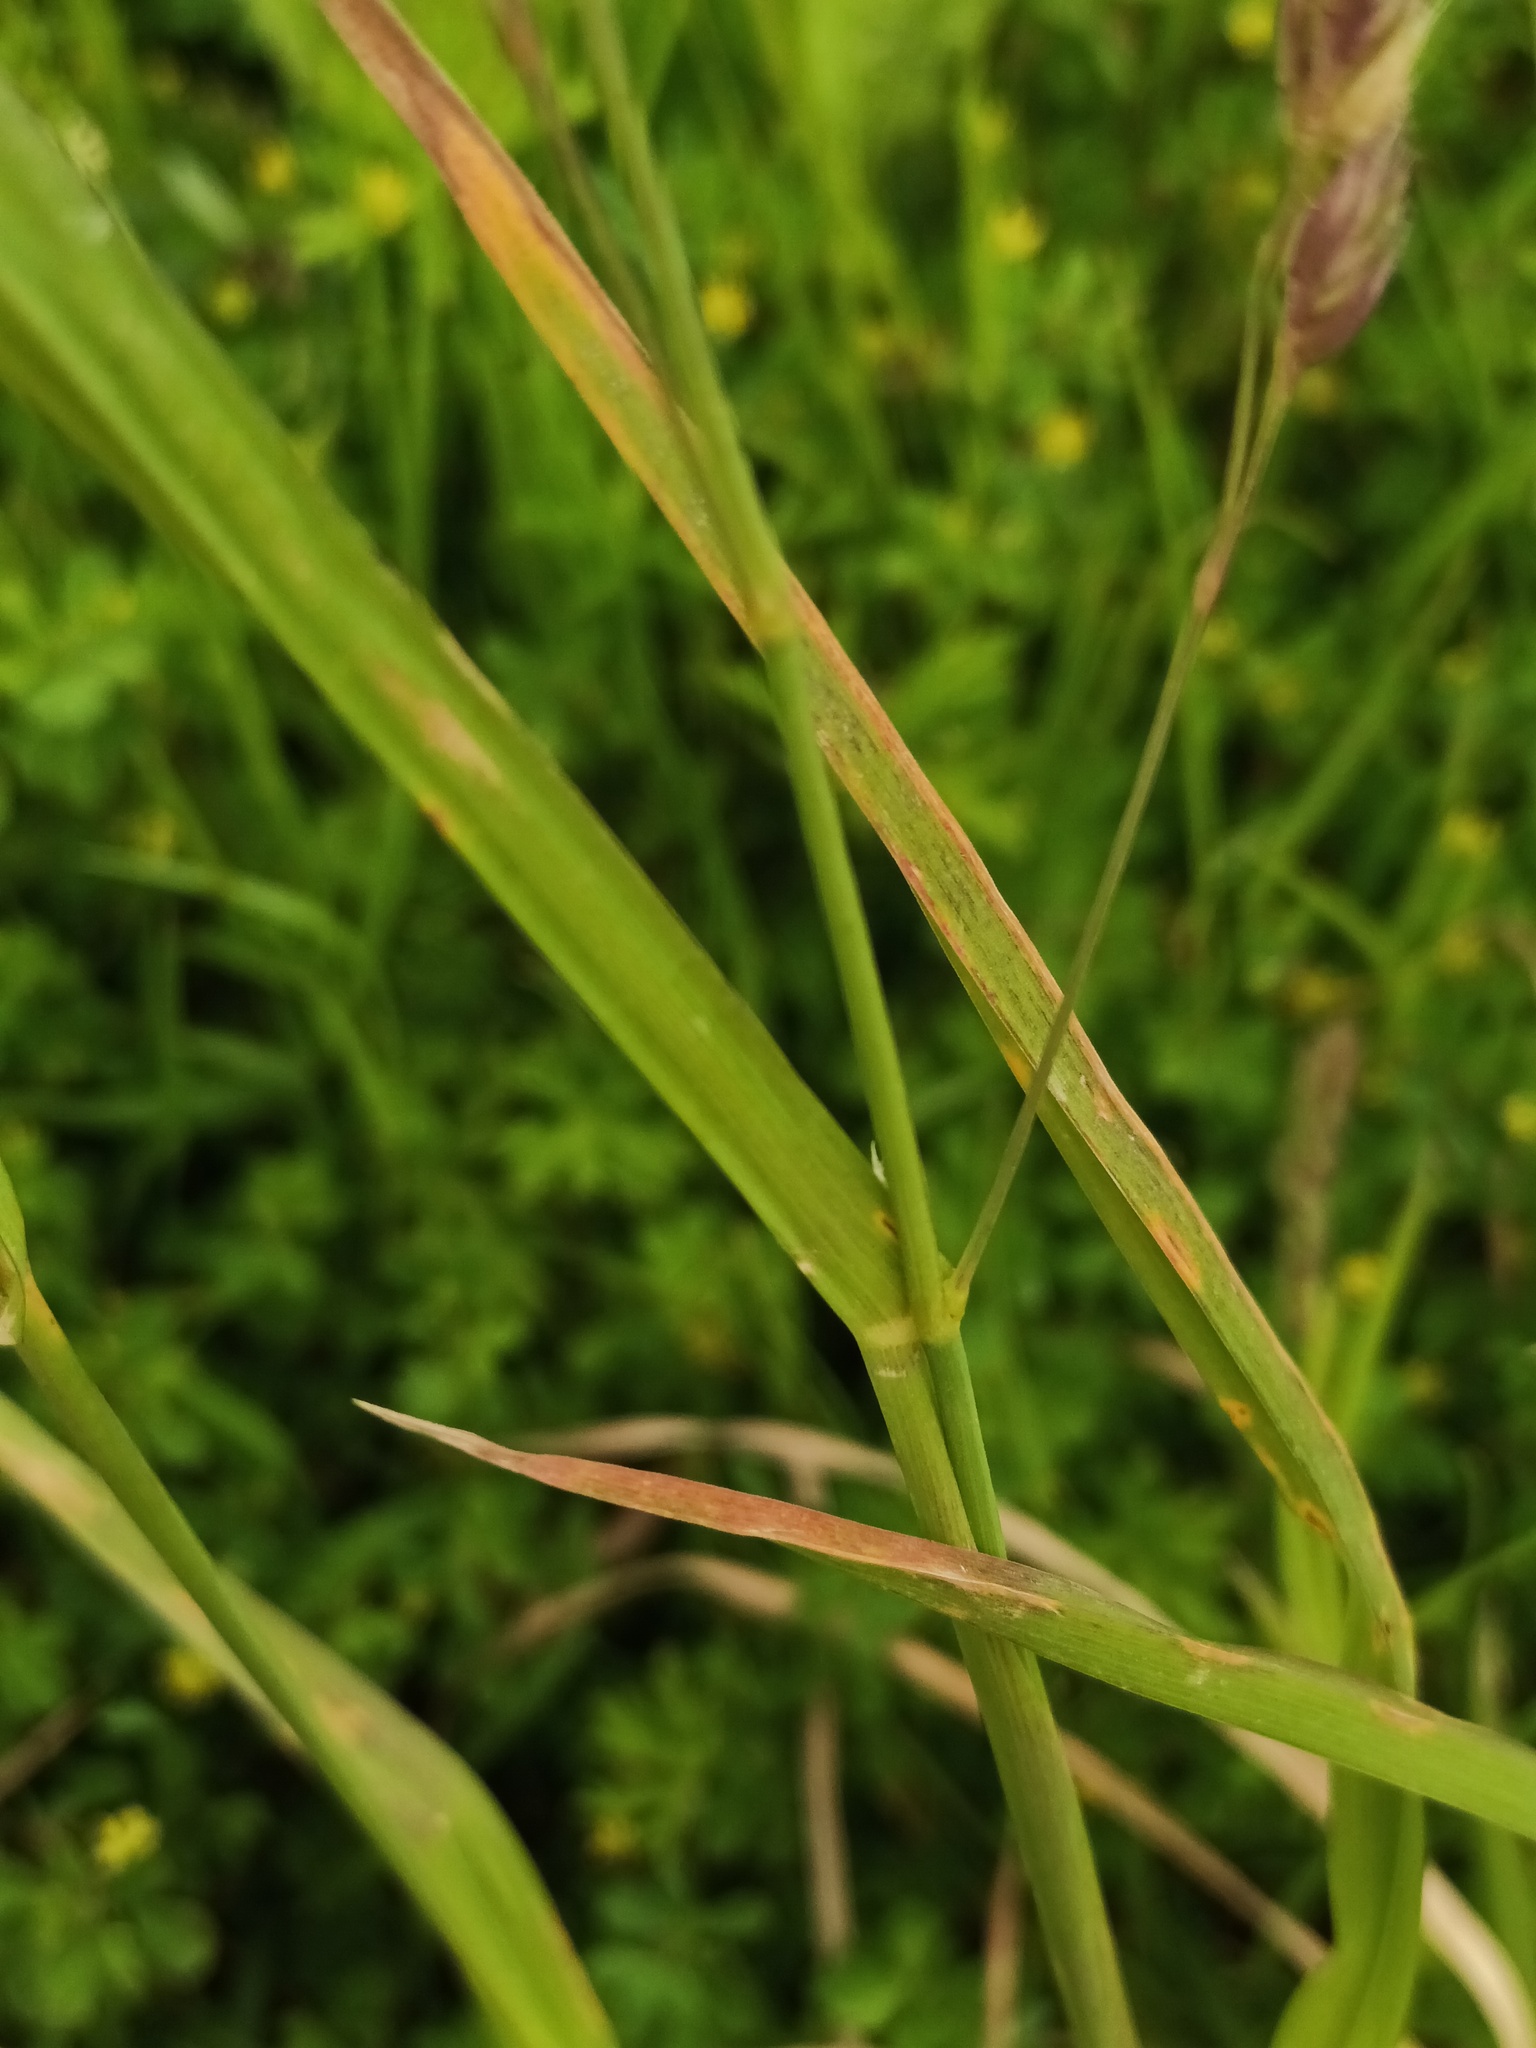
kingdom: Plantae
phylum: Tracheophyta
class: Liliopsida
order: Poales
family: Poaceae
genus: Dactylis
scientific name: Dactylis glomerata
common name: Orchardgrass
